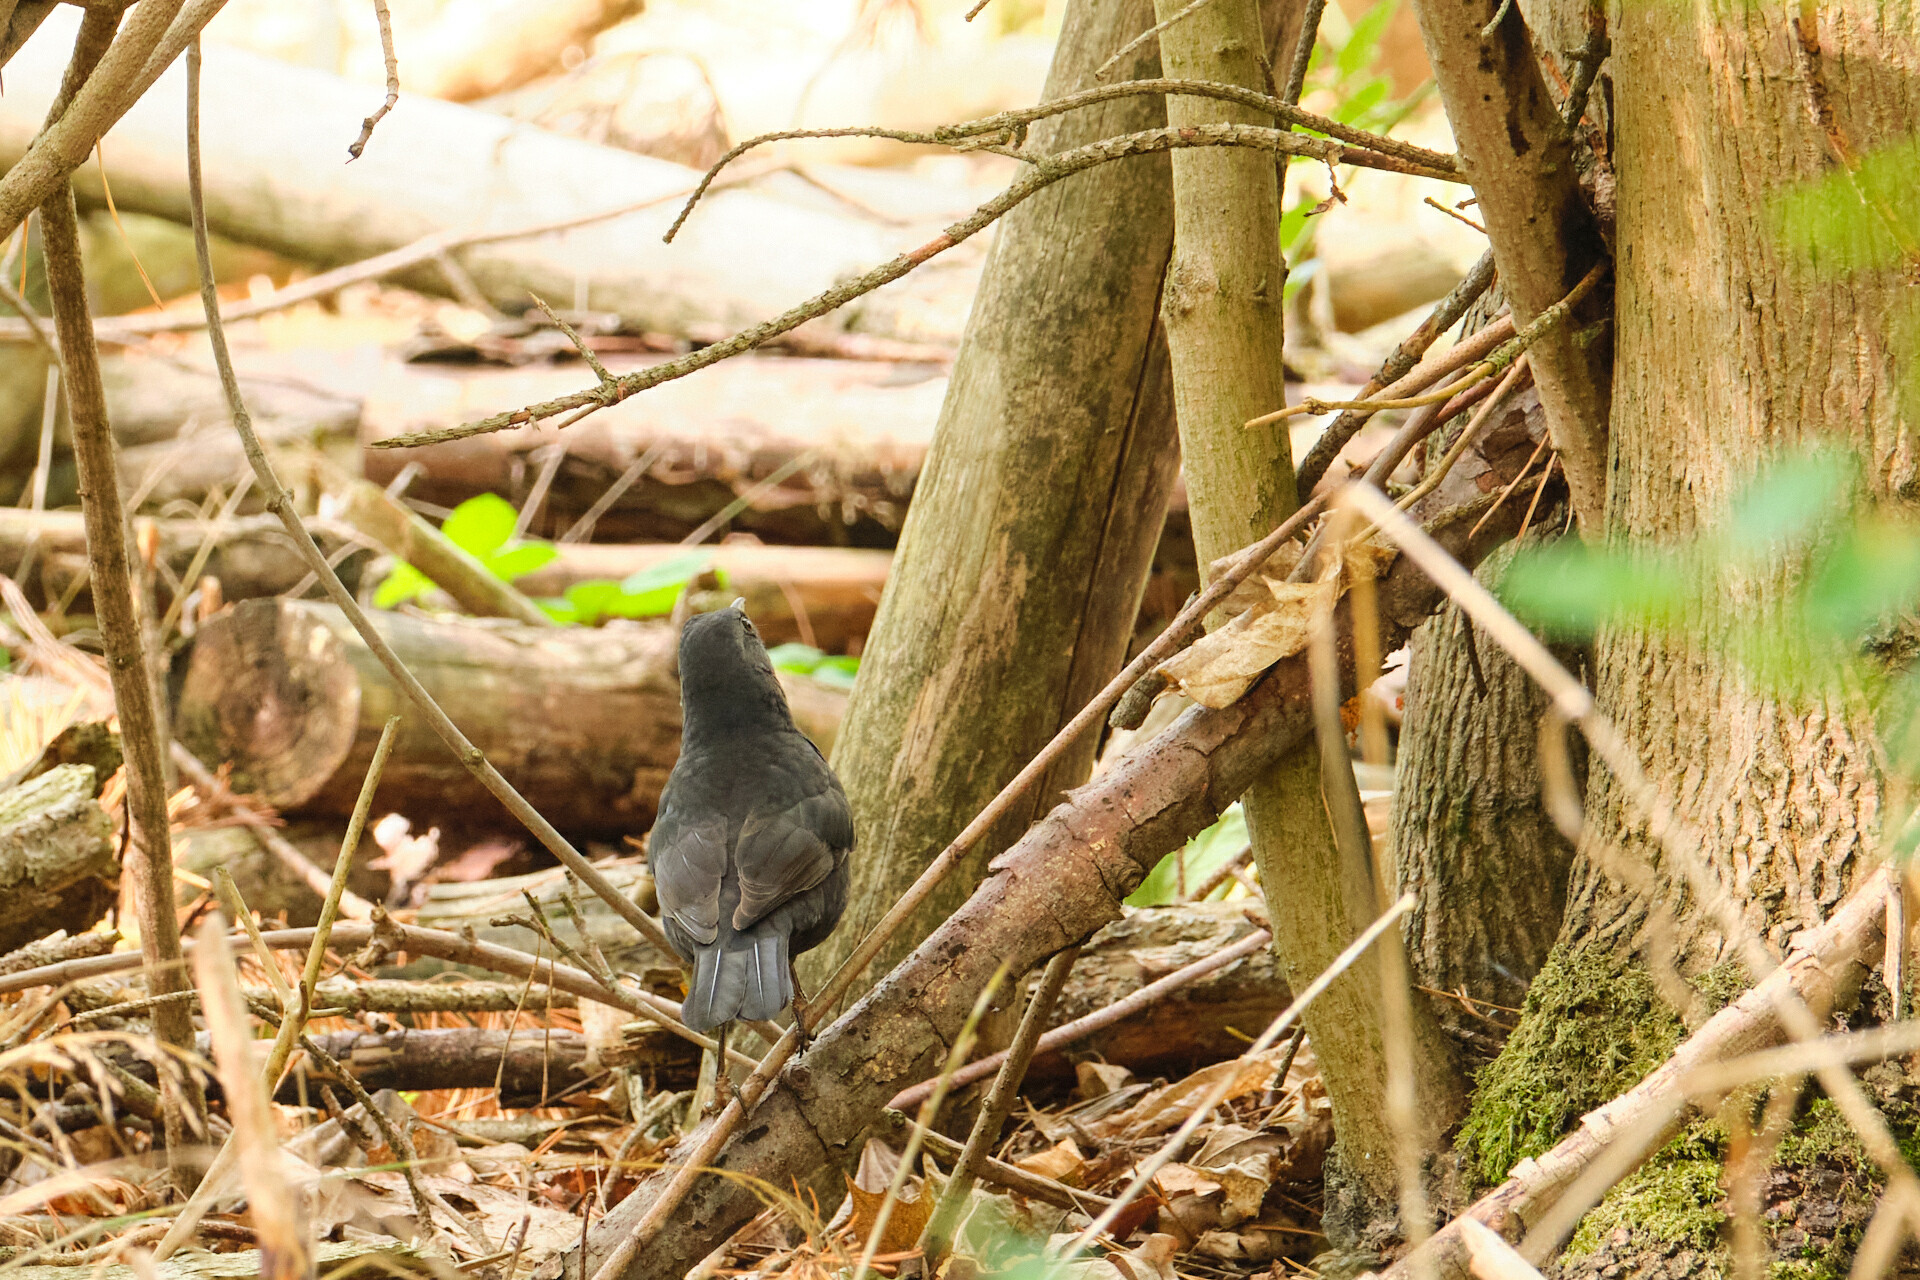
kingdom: Animalia
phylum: Chordata
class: Aves
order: Passeriformes
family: Turdidae
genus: Turdus
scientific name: Turdus merula
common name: Common blackbird
